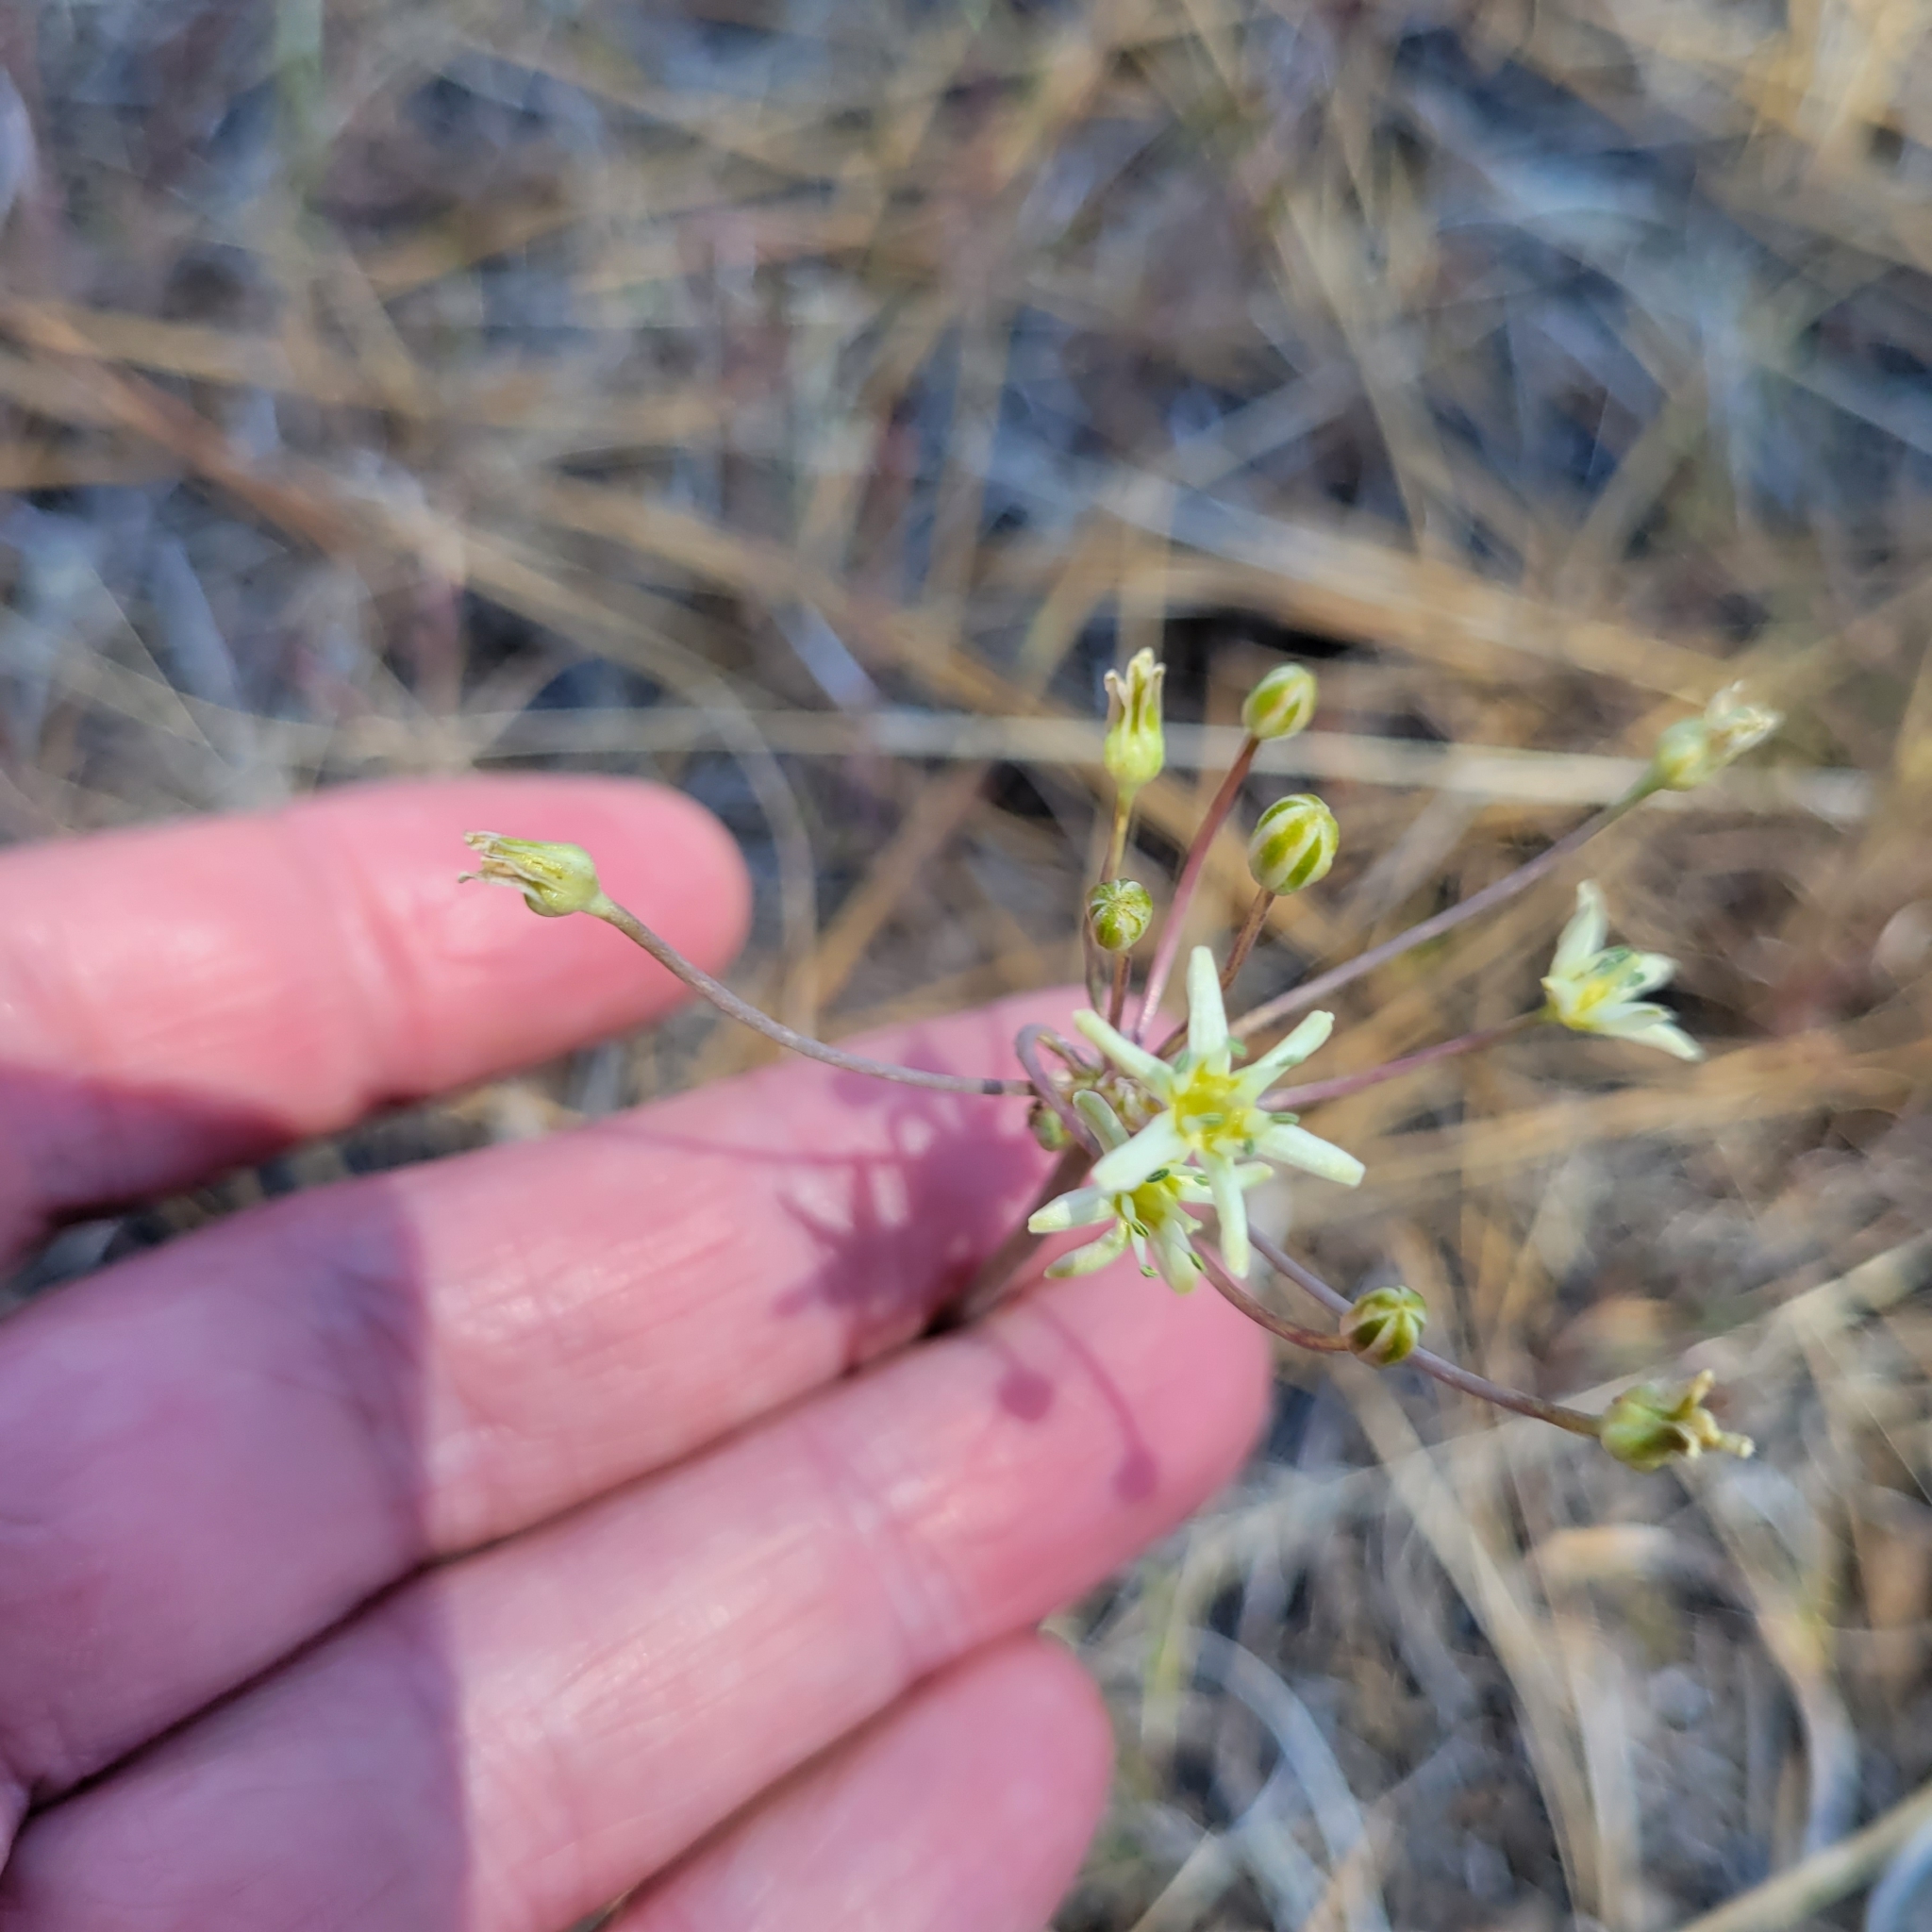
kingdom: Plantae
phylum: Tracheophyta
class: Liliopsida
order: Asparagales
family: Asparagaceae
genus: Muilla
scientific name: Muilla maritima
